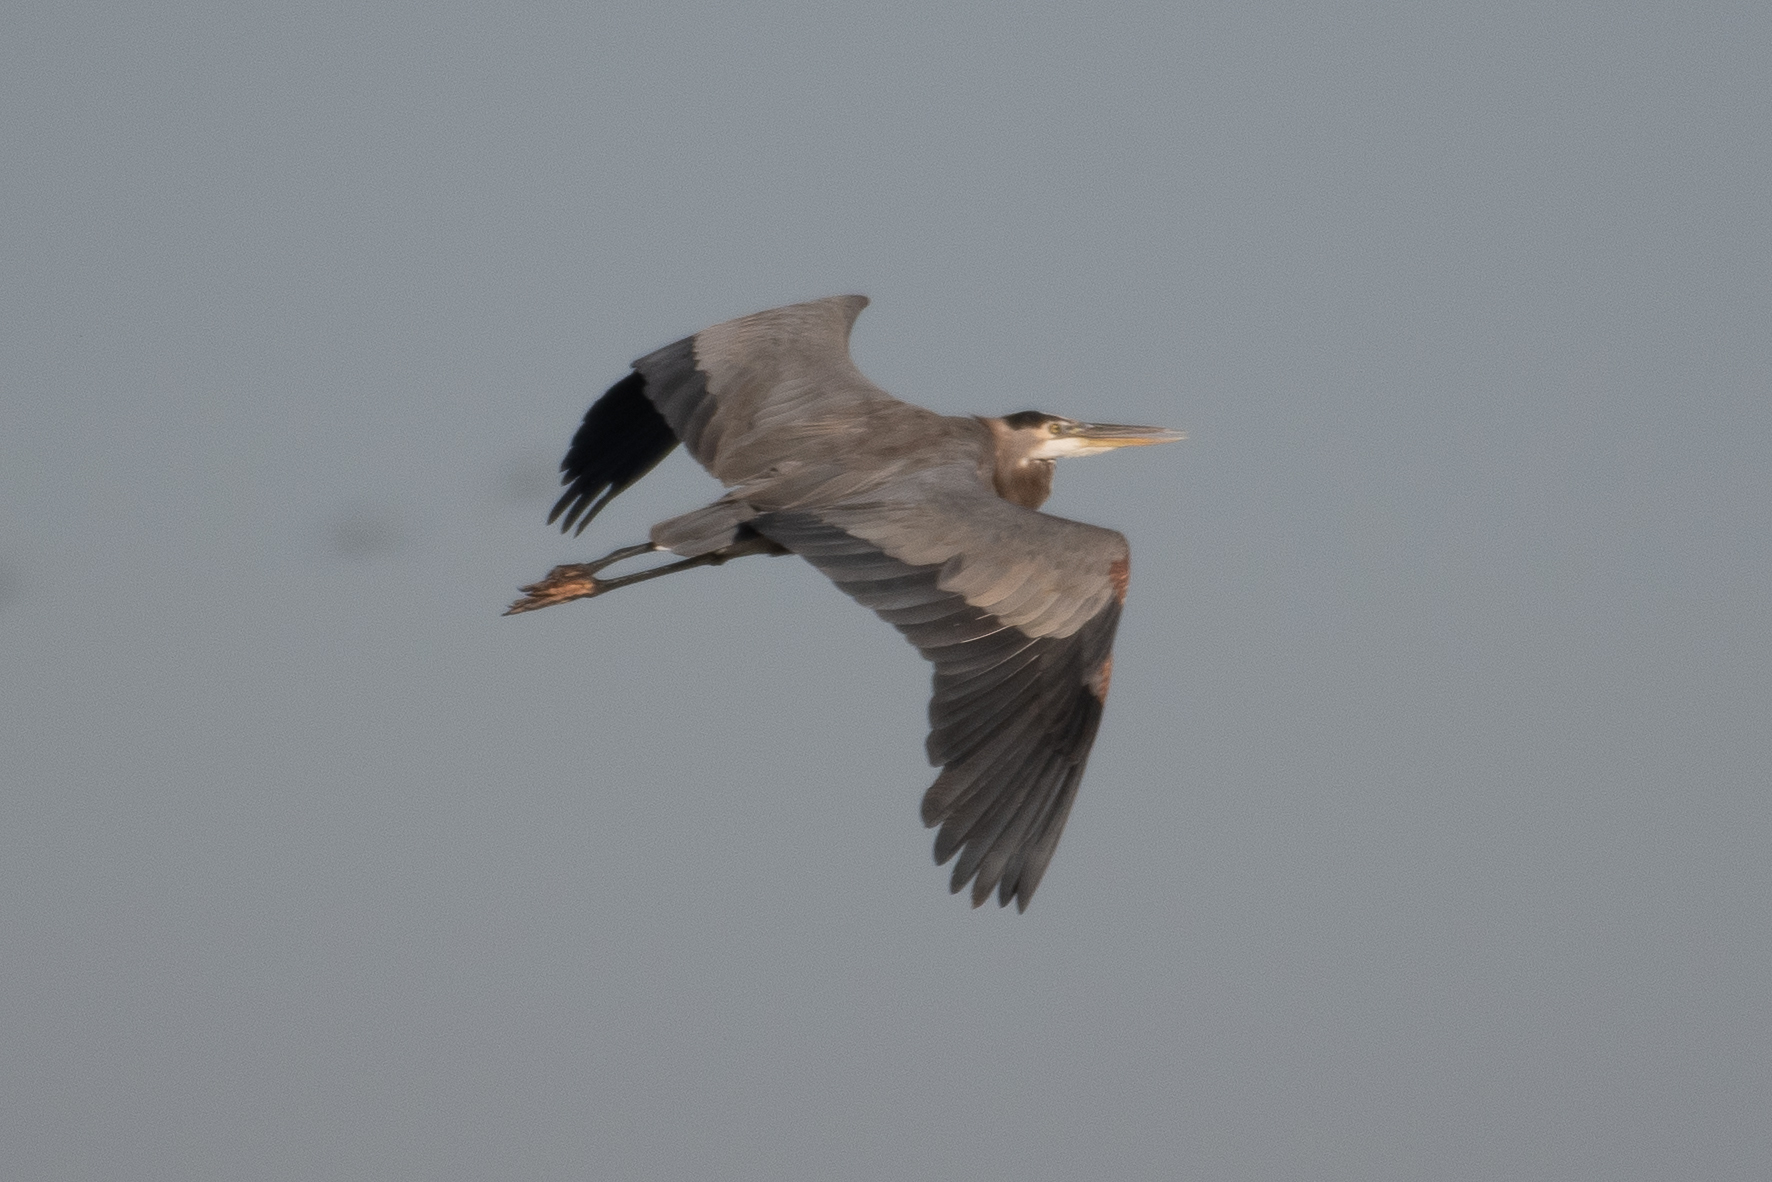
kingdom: Animalia
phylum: Chordata
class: Aves
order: Pelecaniformes
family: Ardeidae
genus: Ardea
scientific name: Ardea herodias
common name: Great blue heron
